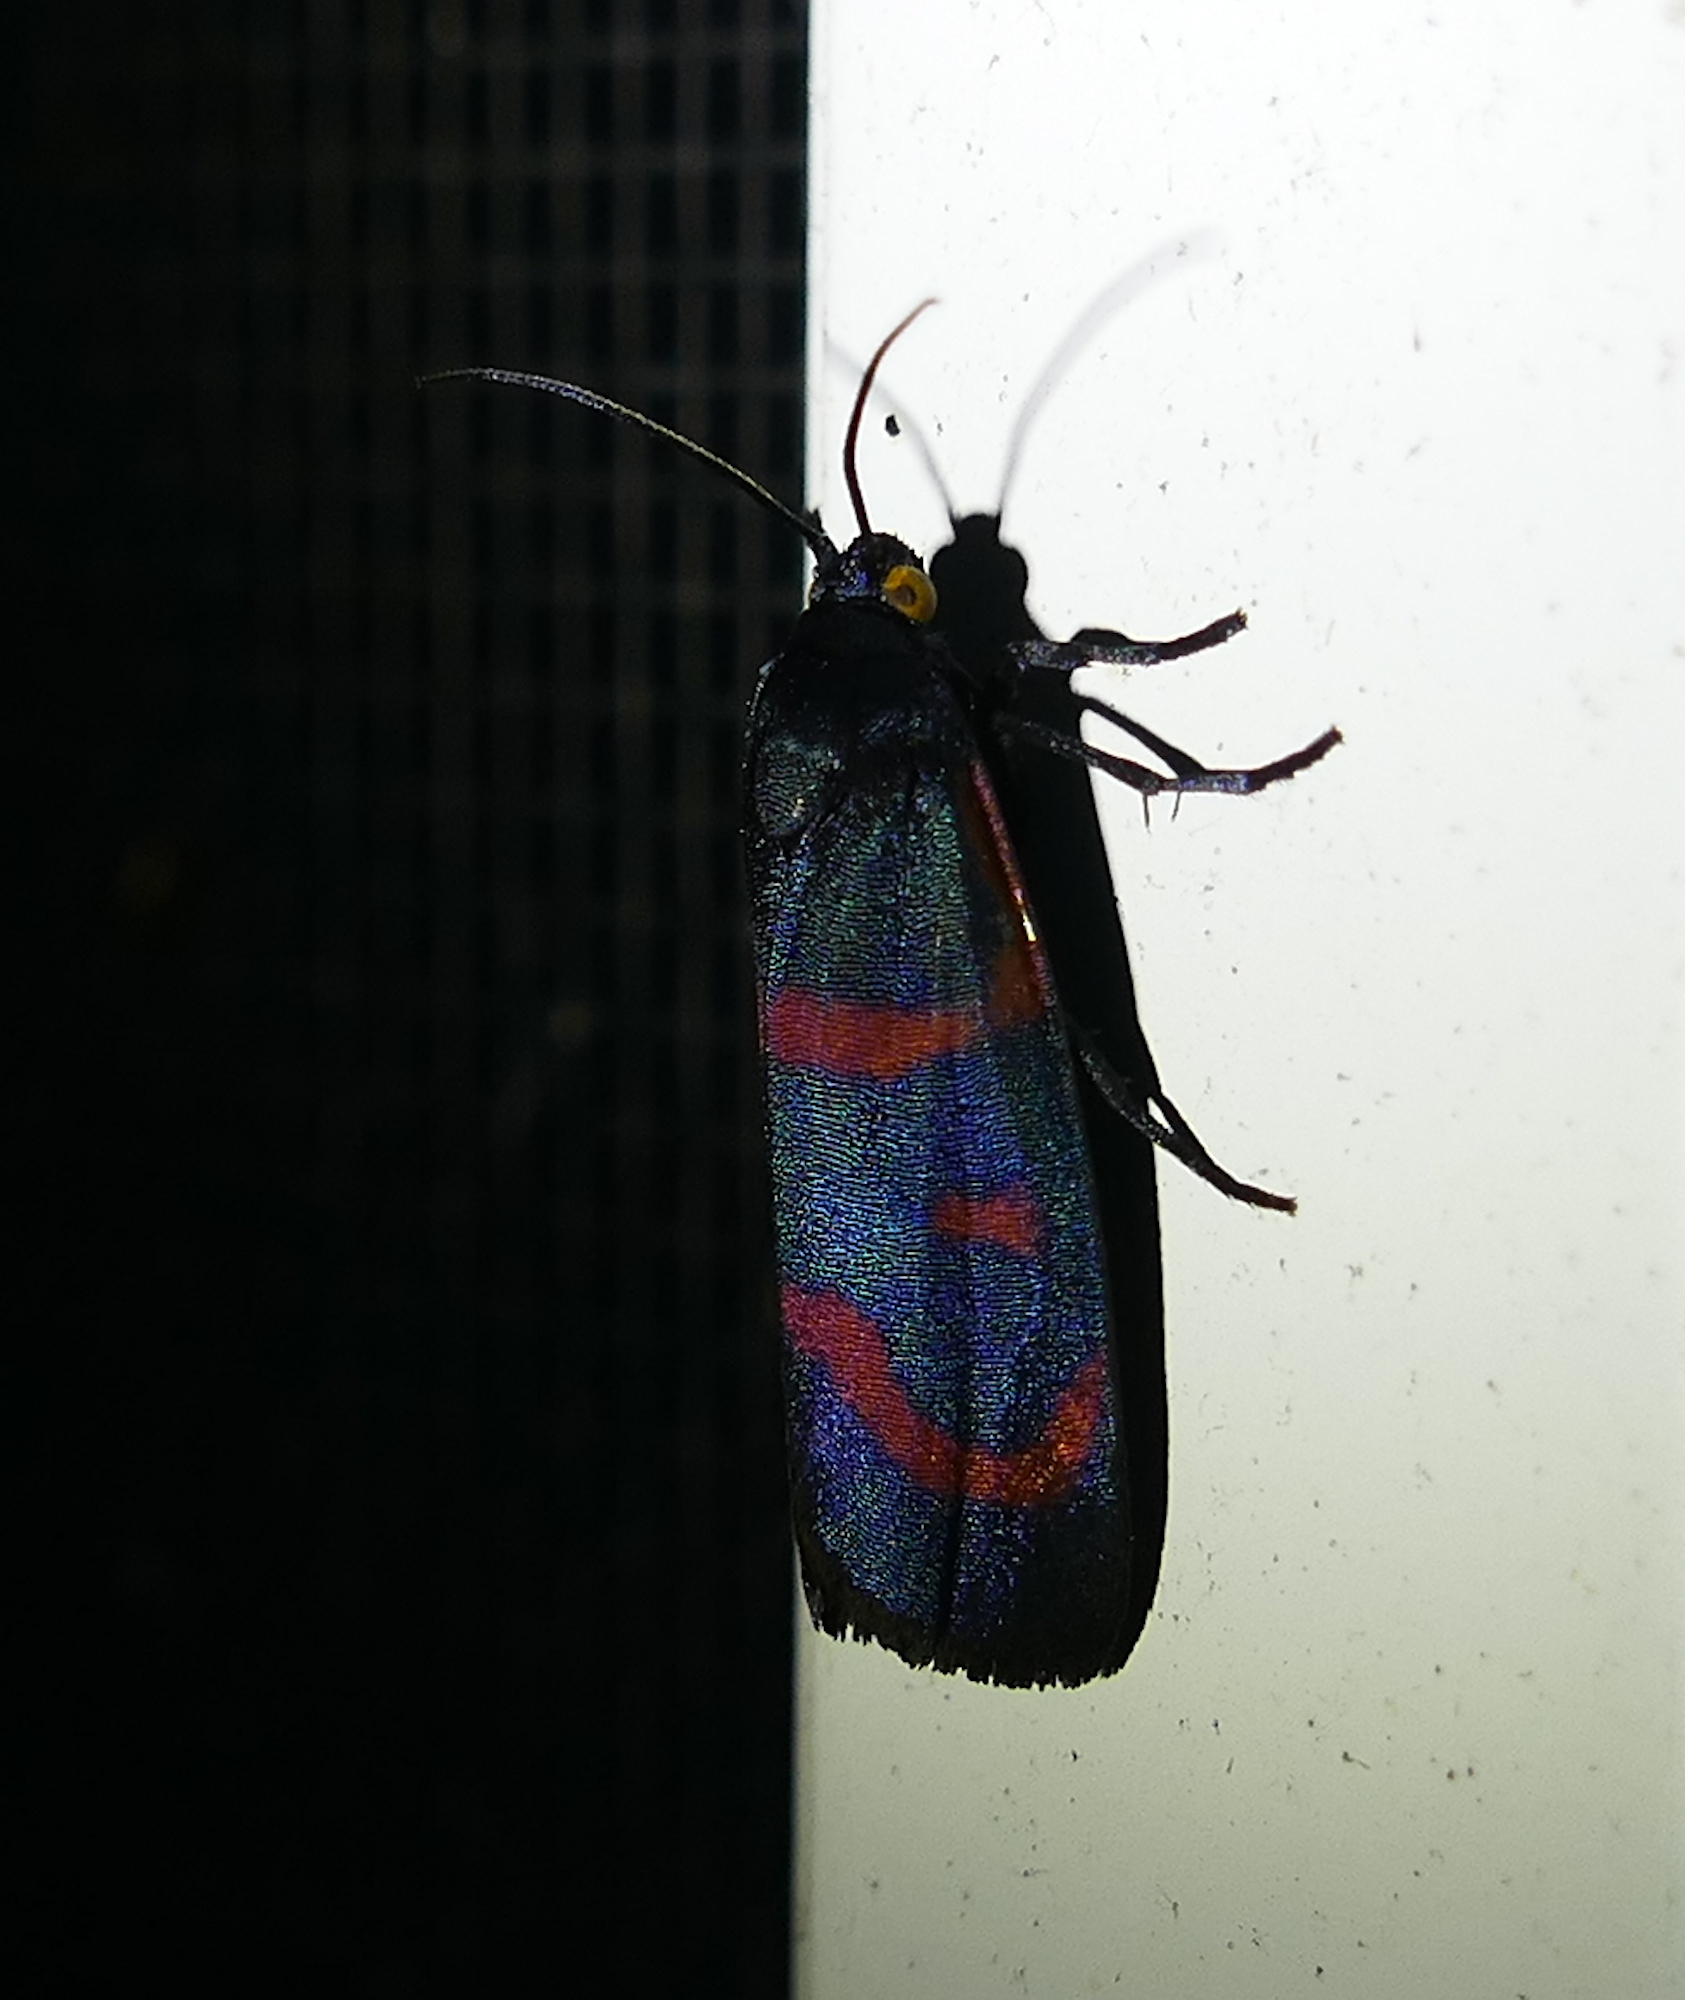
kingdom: Animalia
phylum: Arthropoda
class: Insecta
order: Lepidoptera
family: Noctuidae
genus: Cydosia
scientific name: Cydosia aurivitta
